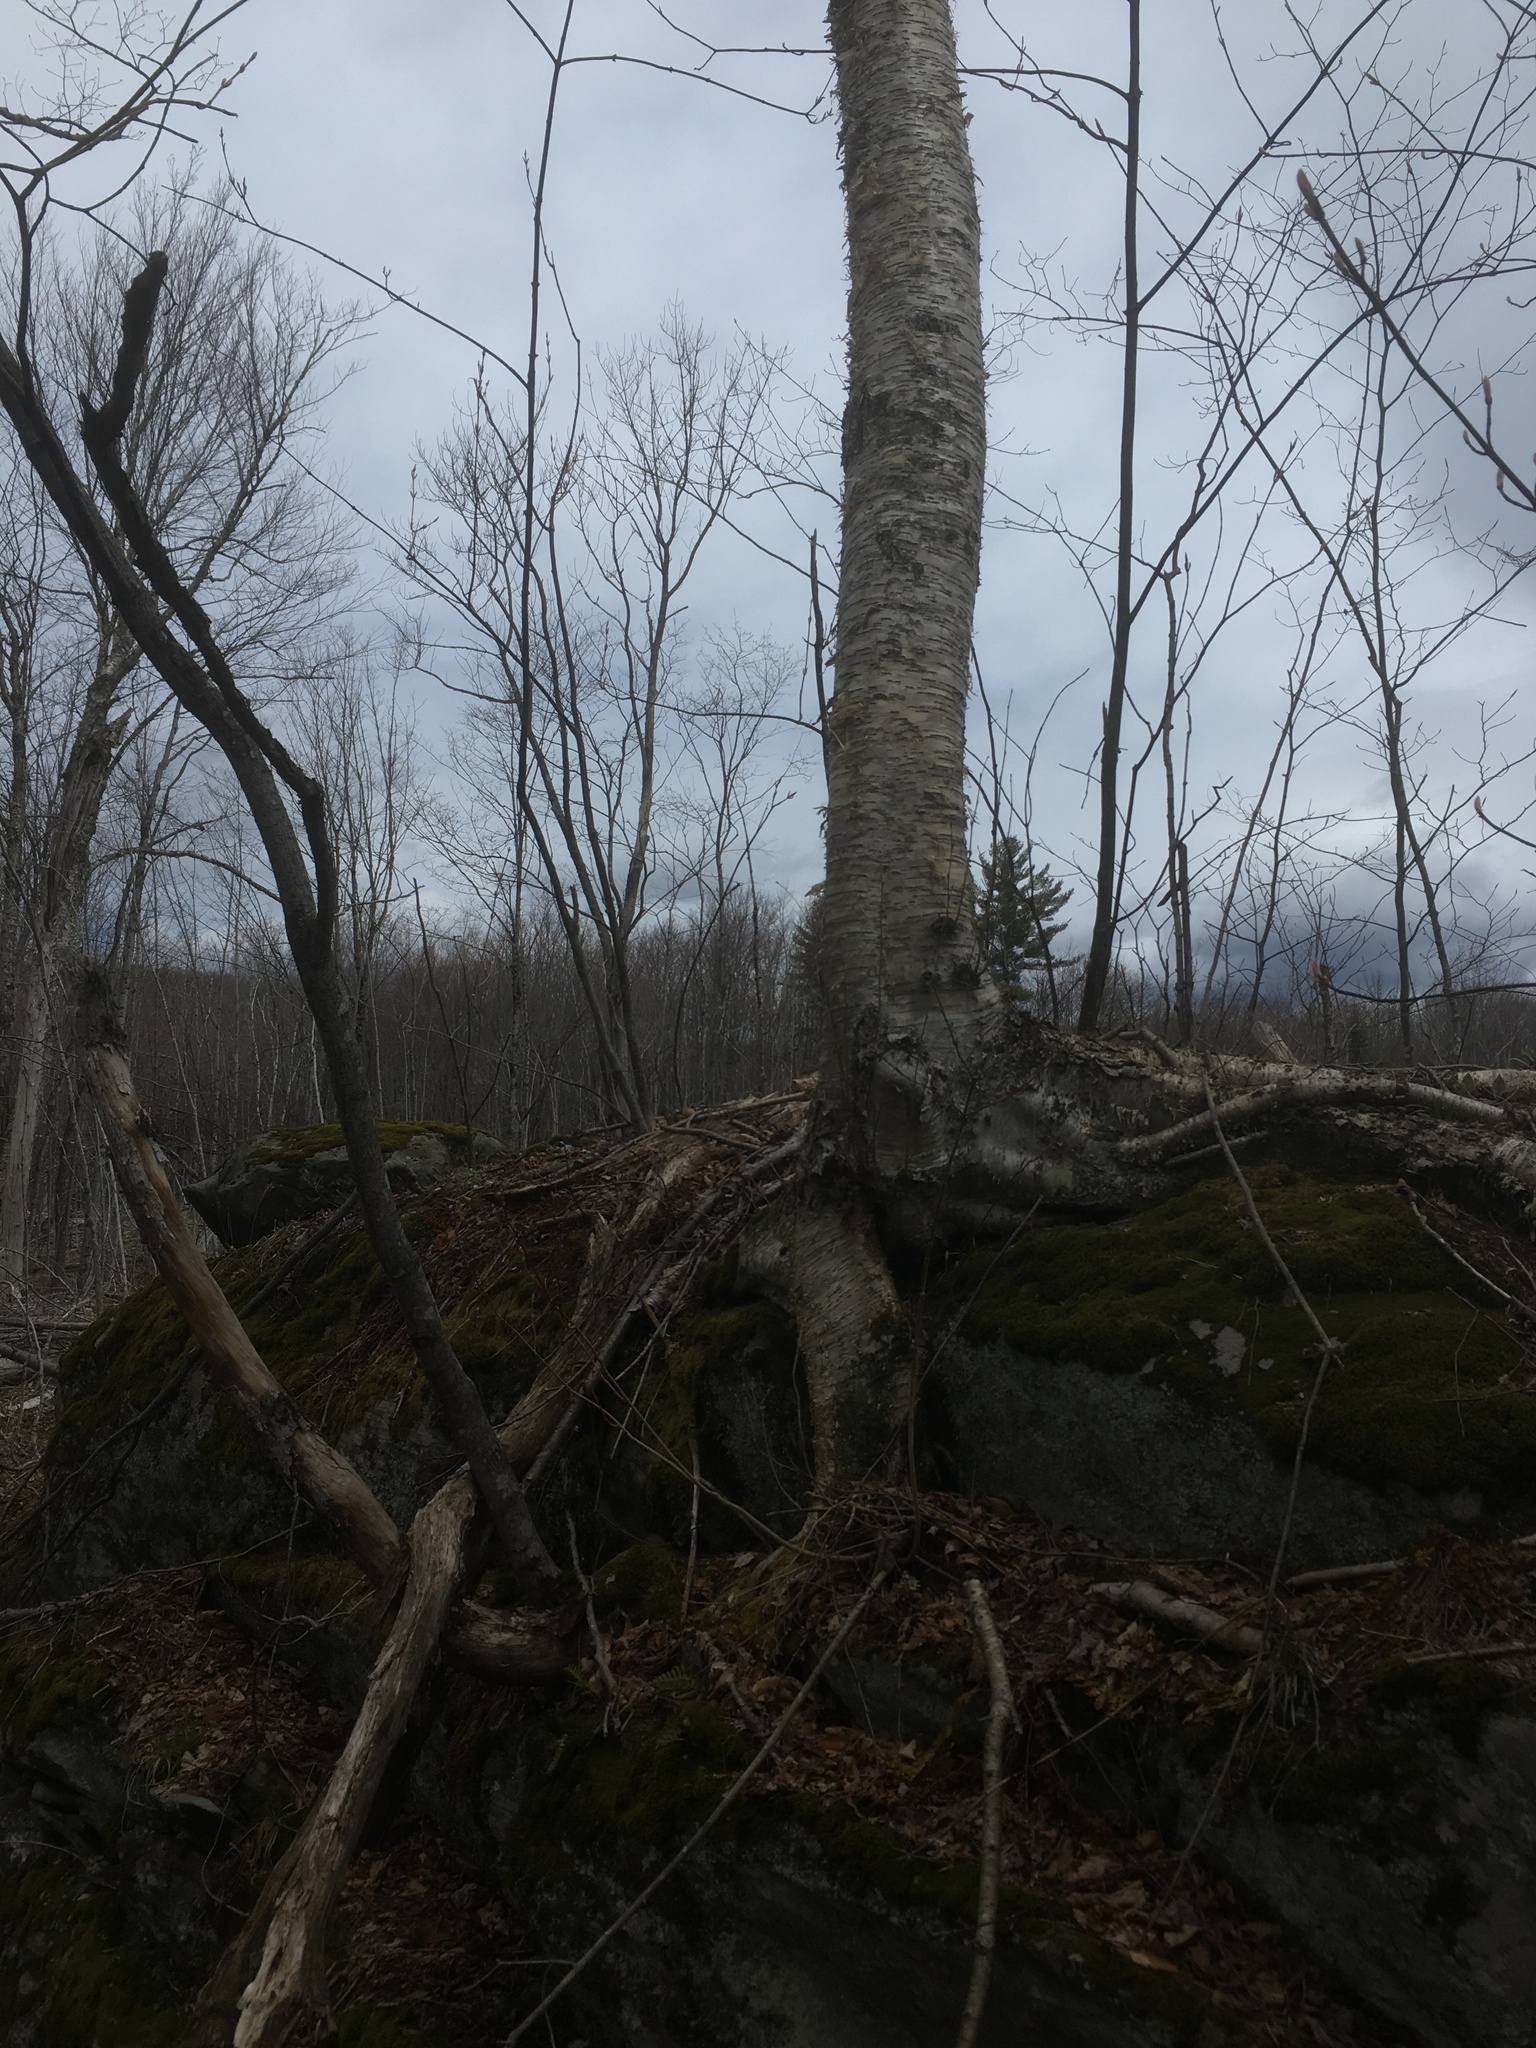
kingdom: Plantae
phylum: Tracheophyta
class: Magnoliopsida
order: Fagales
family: Betulaceae
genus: Betula
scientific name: Betula alleghaniensis
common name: Yellow birch
